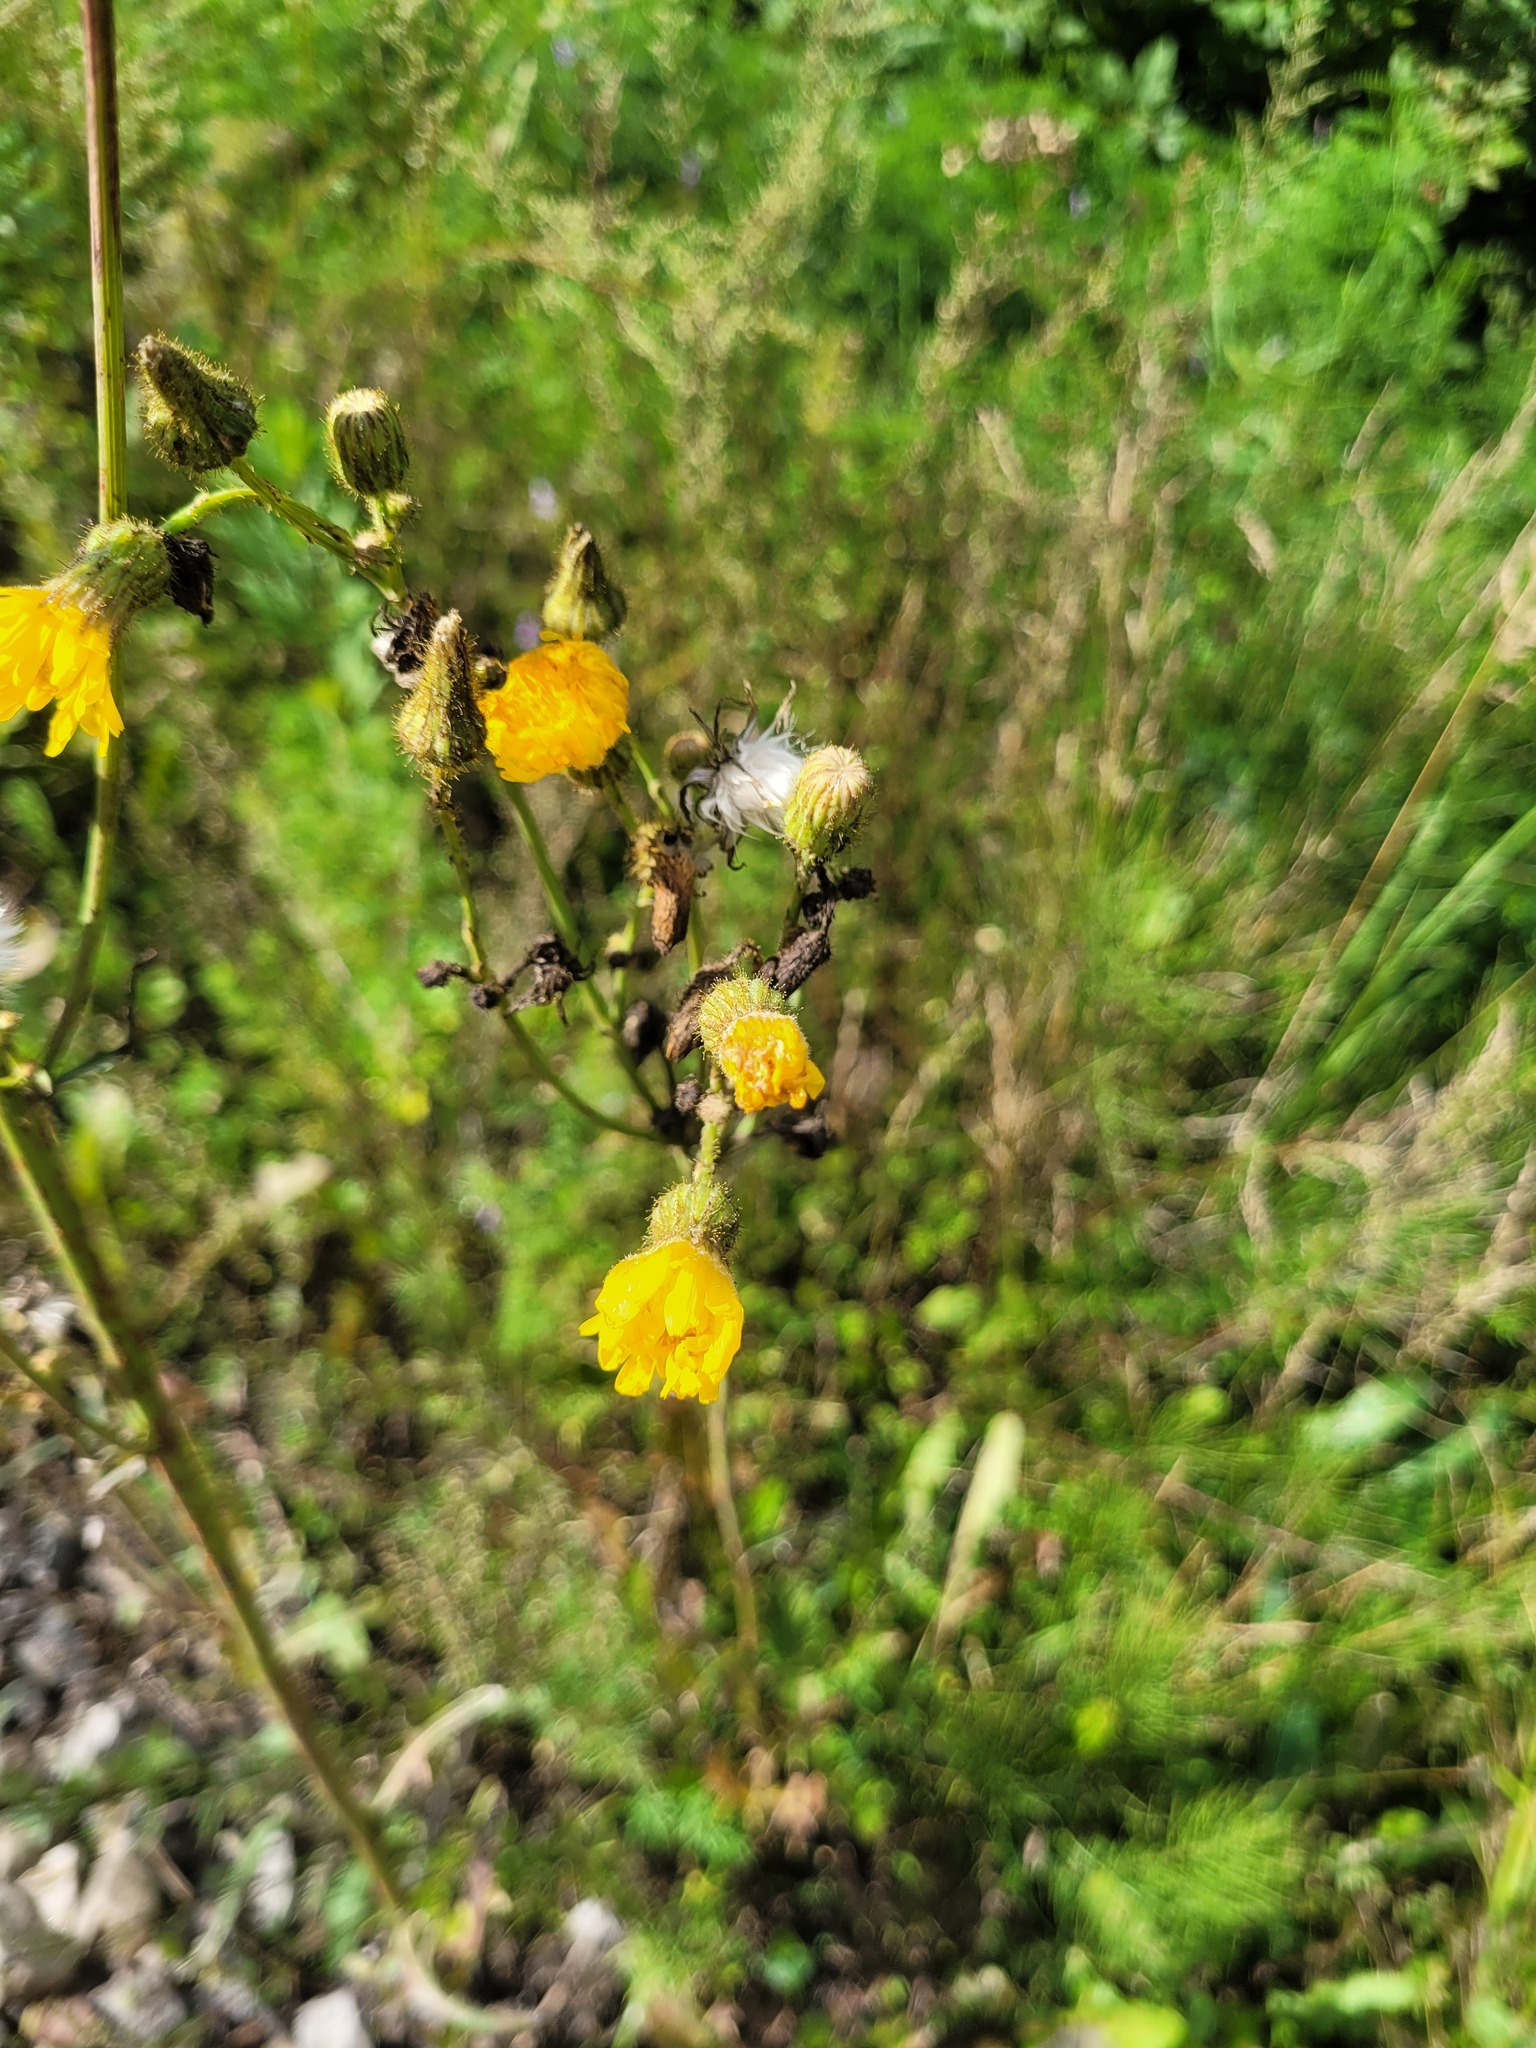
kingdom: Plantae
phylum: Tracheophyta
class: Magnoliopsida
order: Asterales
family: Asteraceae
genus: Sonchus
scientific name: Sonchus arvensis
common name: Perennial sow-thistle
